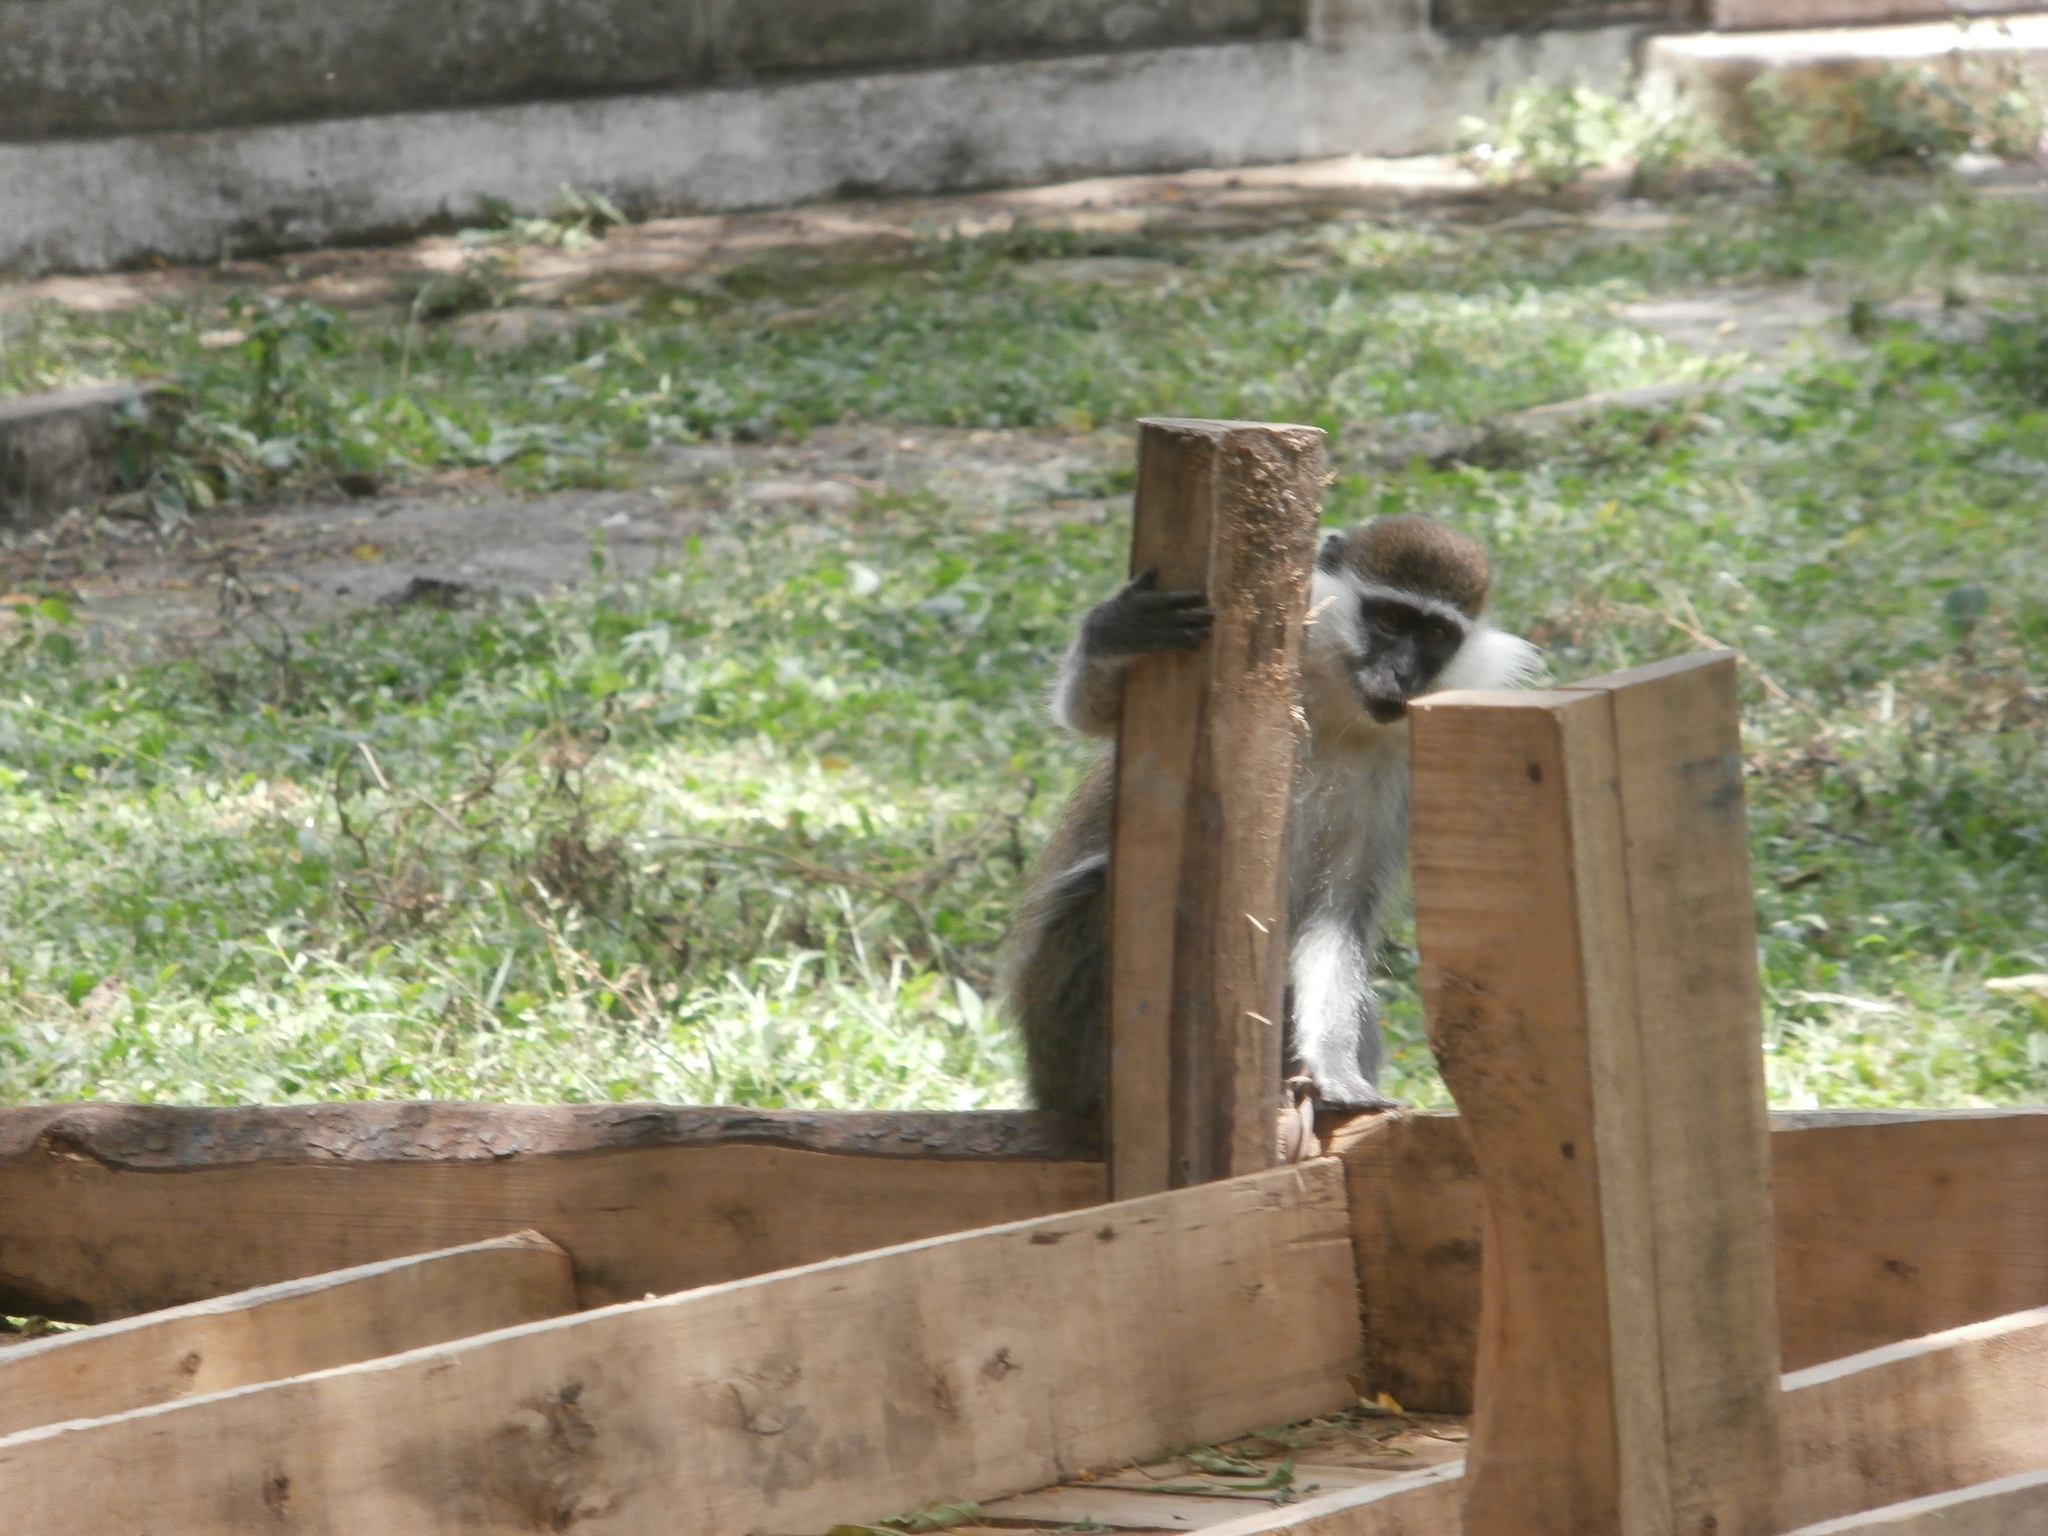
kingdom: Animalia
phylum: Chordata
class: Mammalia
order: Primates
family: Cercopithecidae
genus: Chlorocebus
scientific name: Chlorocebus aethiops
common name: Grivet
